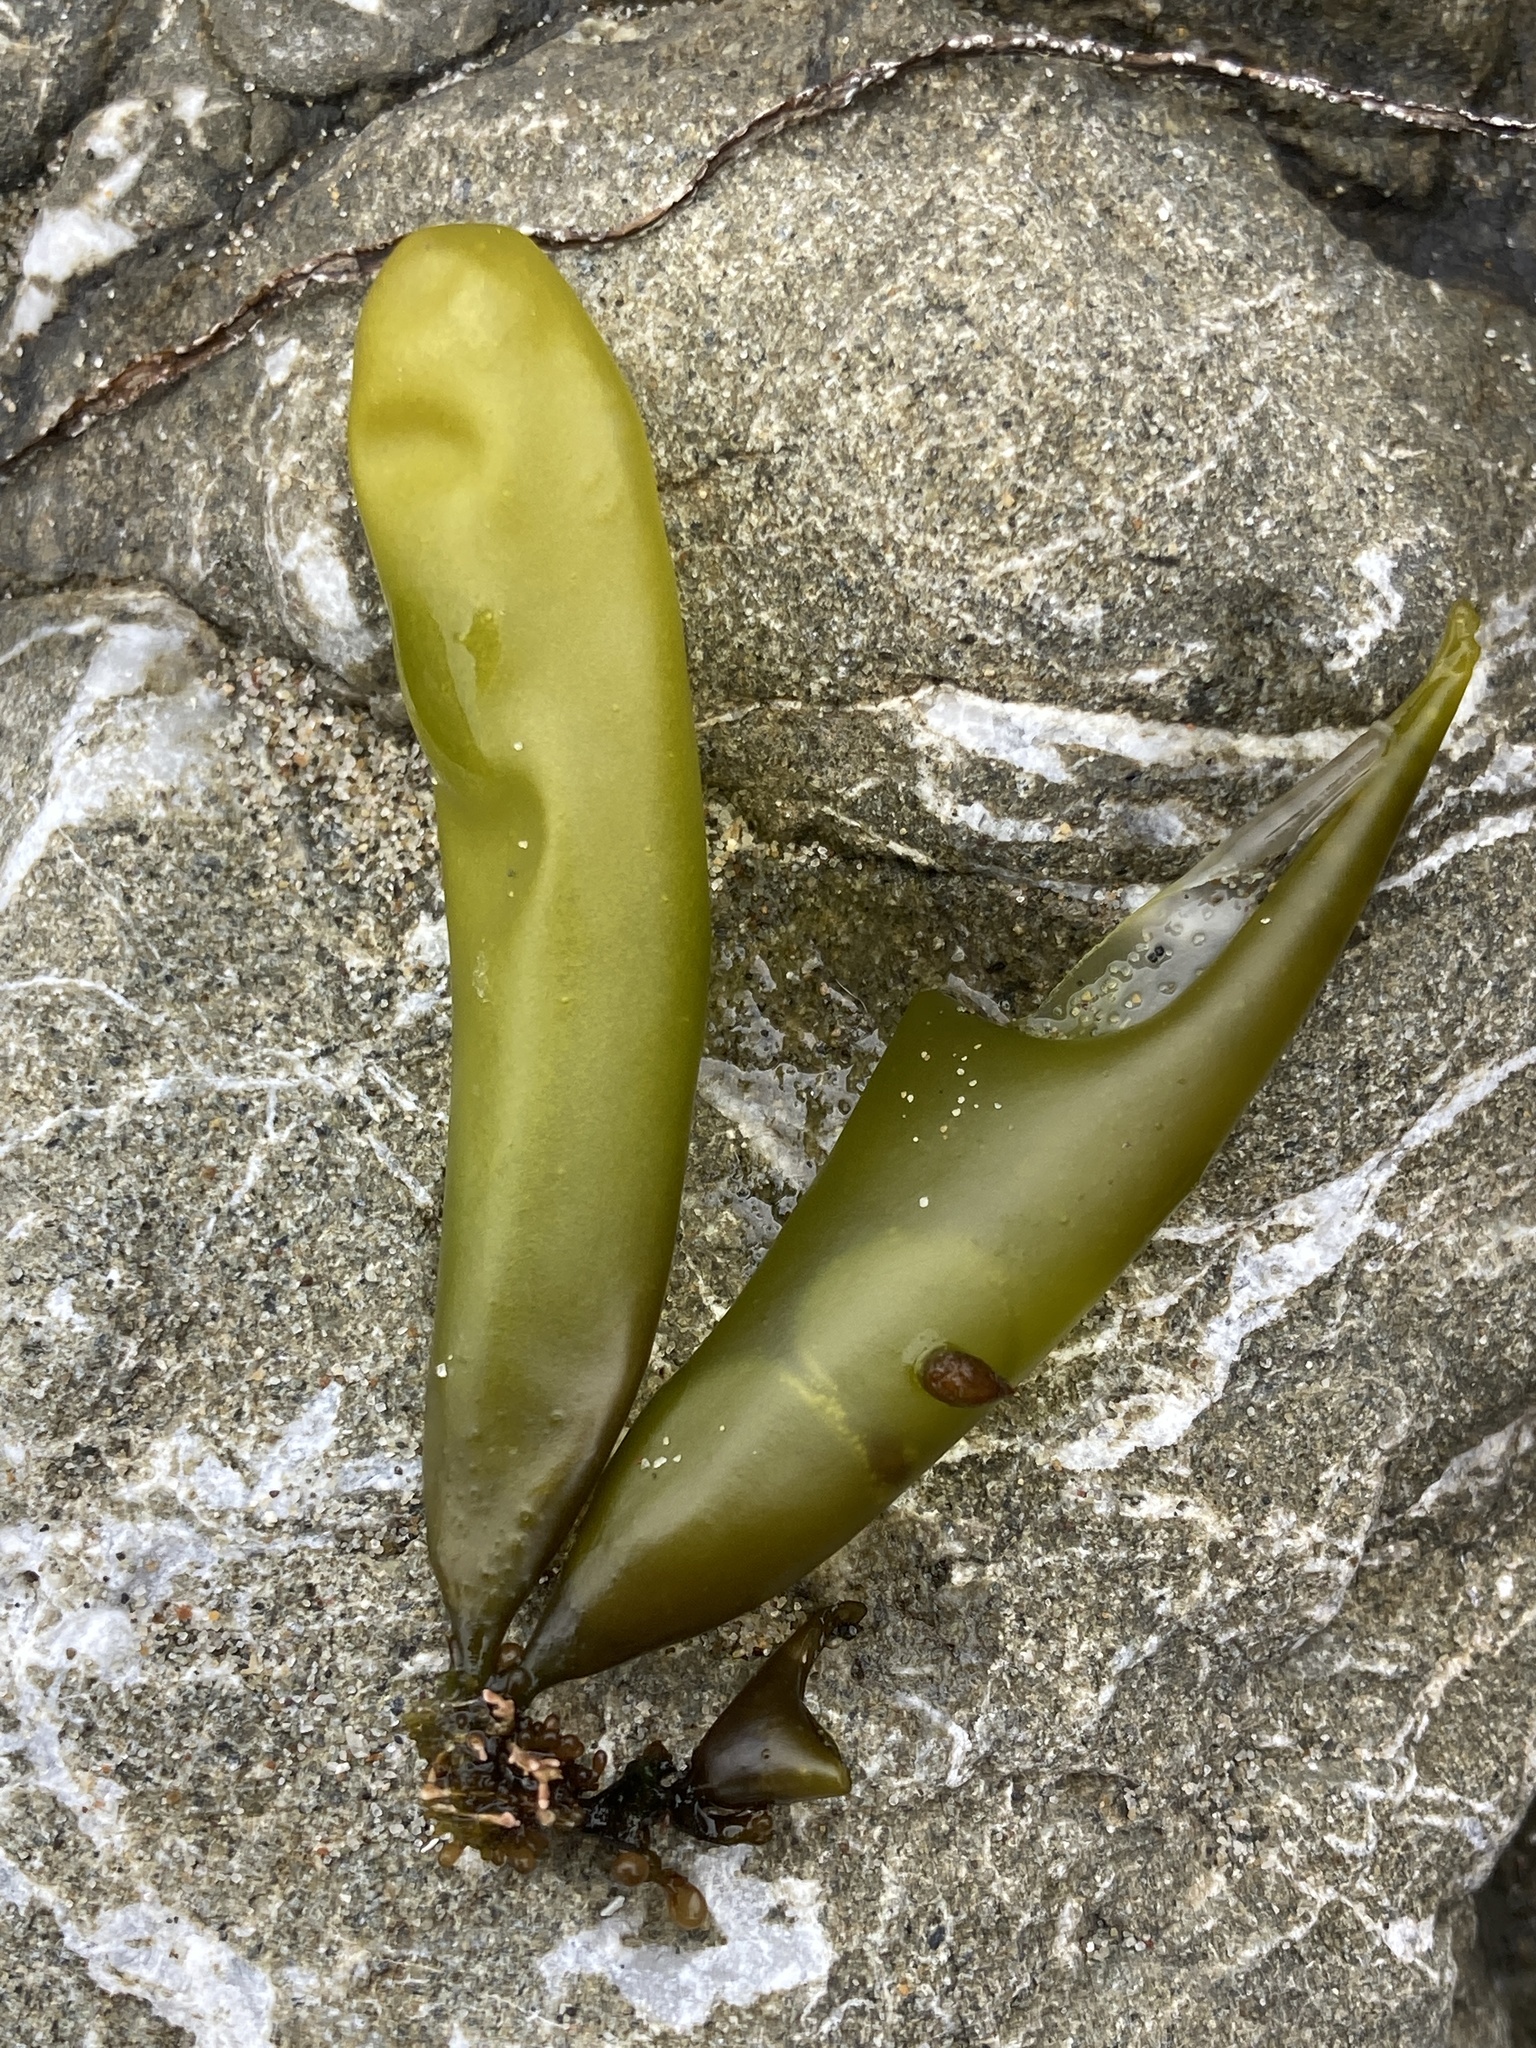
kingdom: Plantae
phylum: Rhodophyta
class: Florideophyceae
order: Palmariales
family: Palmariaceae
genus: Halosaccion
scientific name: Halosaccion glandiforme
